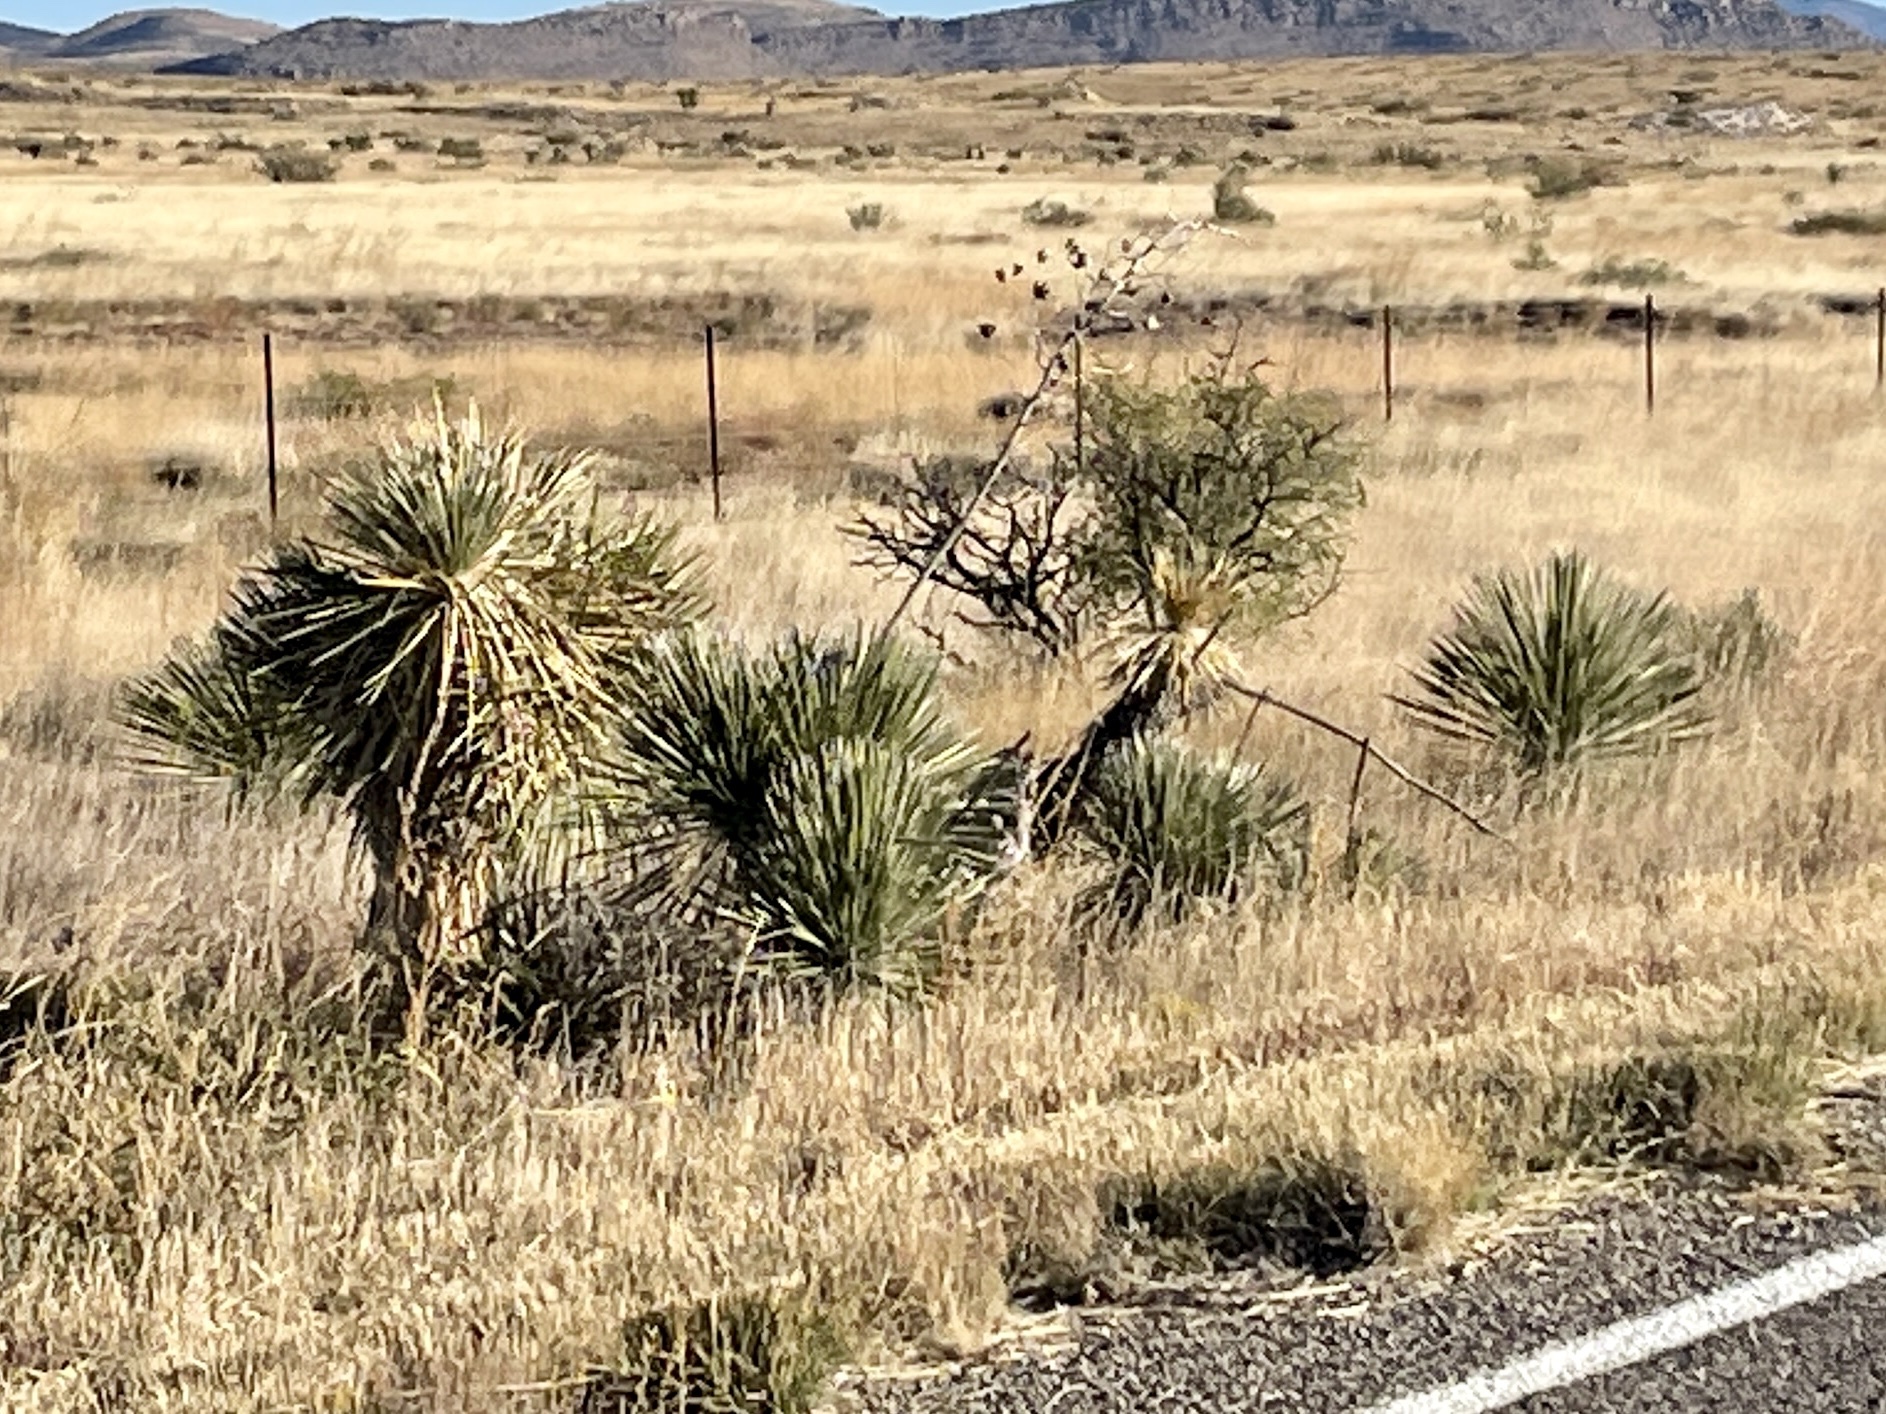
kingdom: Plantae
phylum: Tracheophyta
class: Liliopsida
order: Asparagales
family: Asparagaceae
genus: Yucca
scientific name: Yucca elata
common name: Palmella
